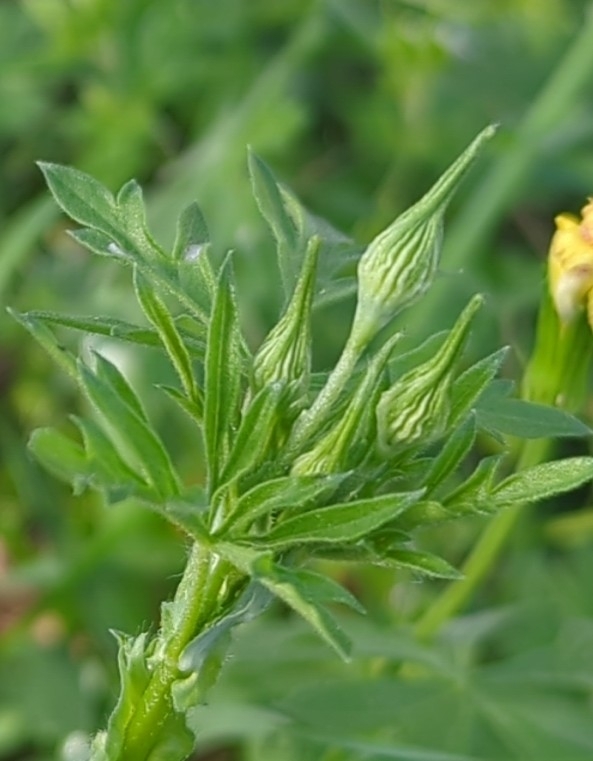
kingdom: Plantae
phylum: Tracheophyta
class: Magnoliopsida
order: Malvales
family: Malvaceae
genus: Callirhoe
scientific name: Callirhoe leiocarpa
